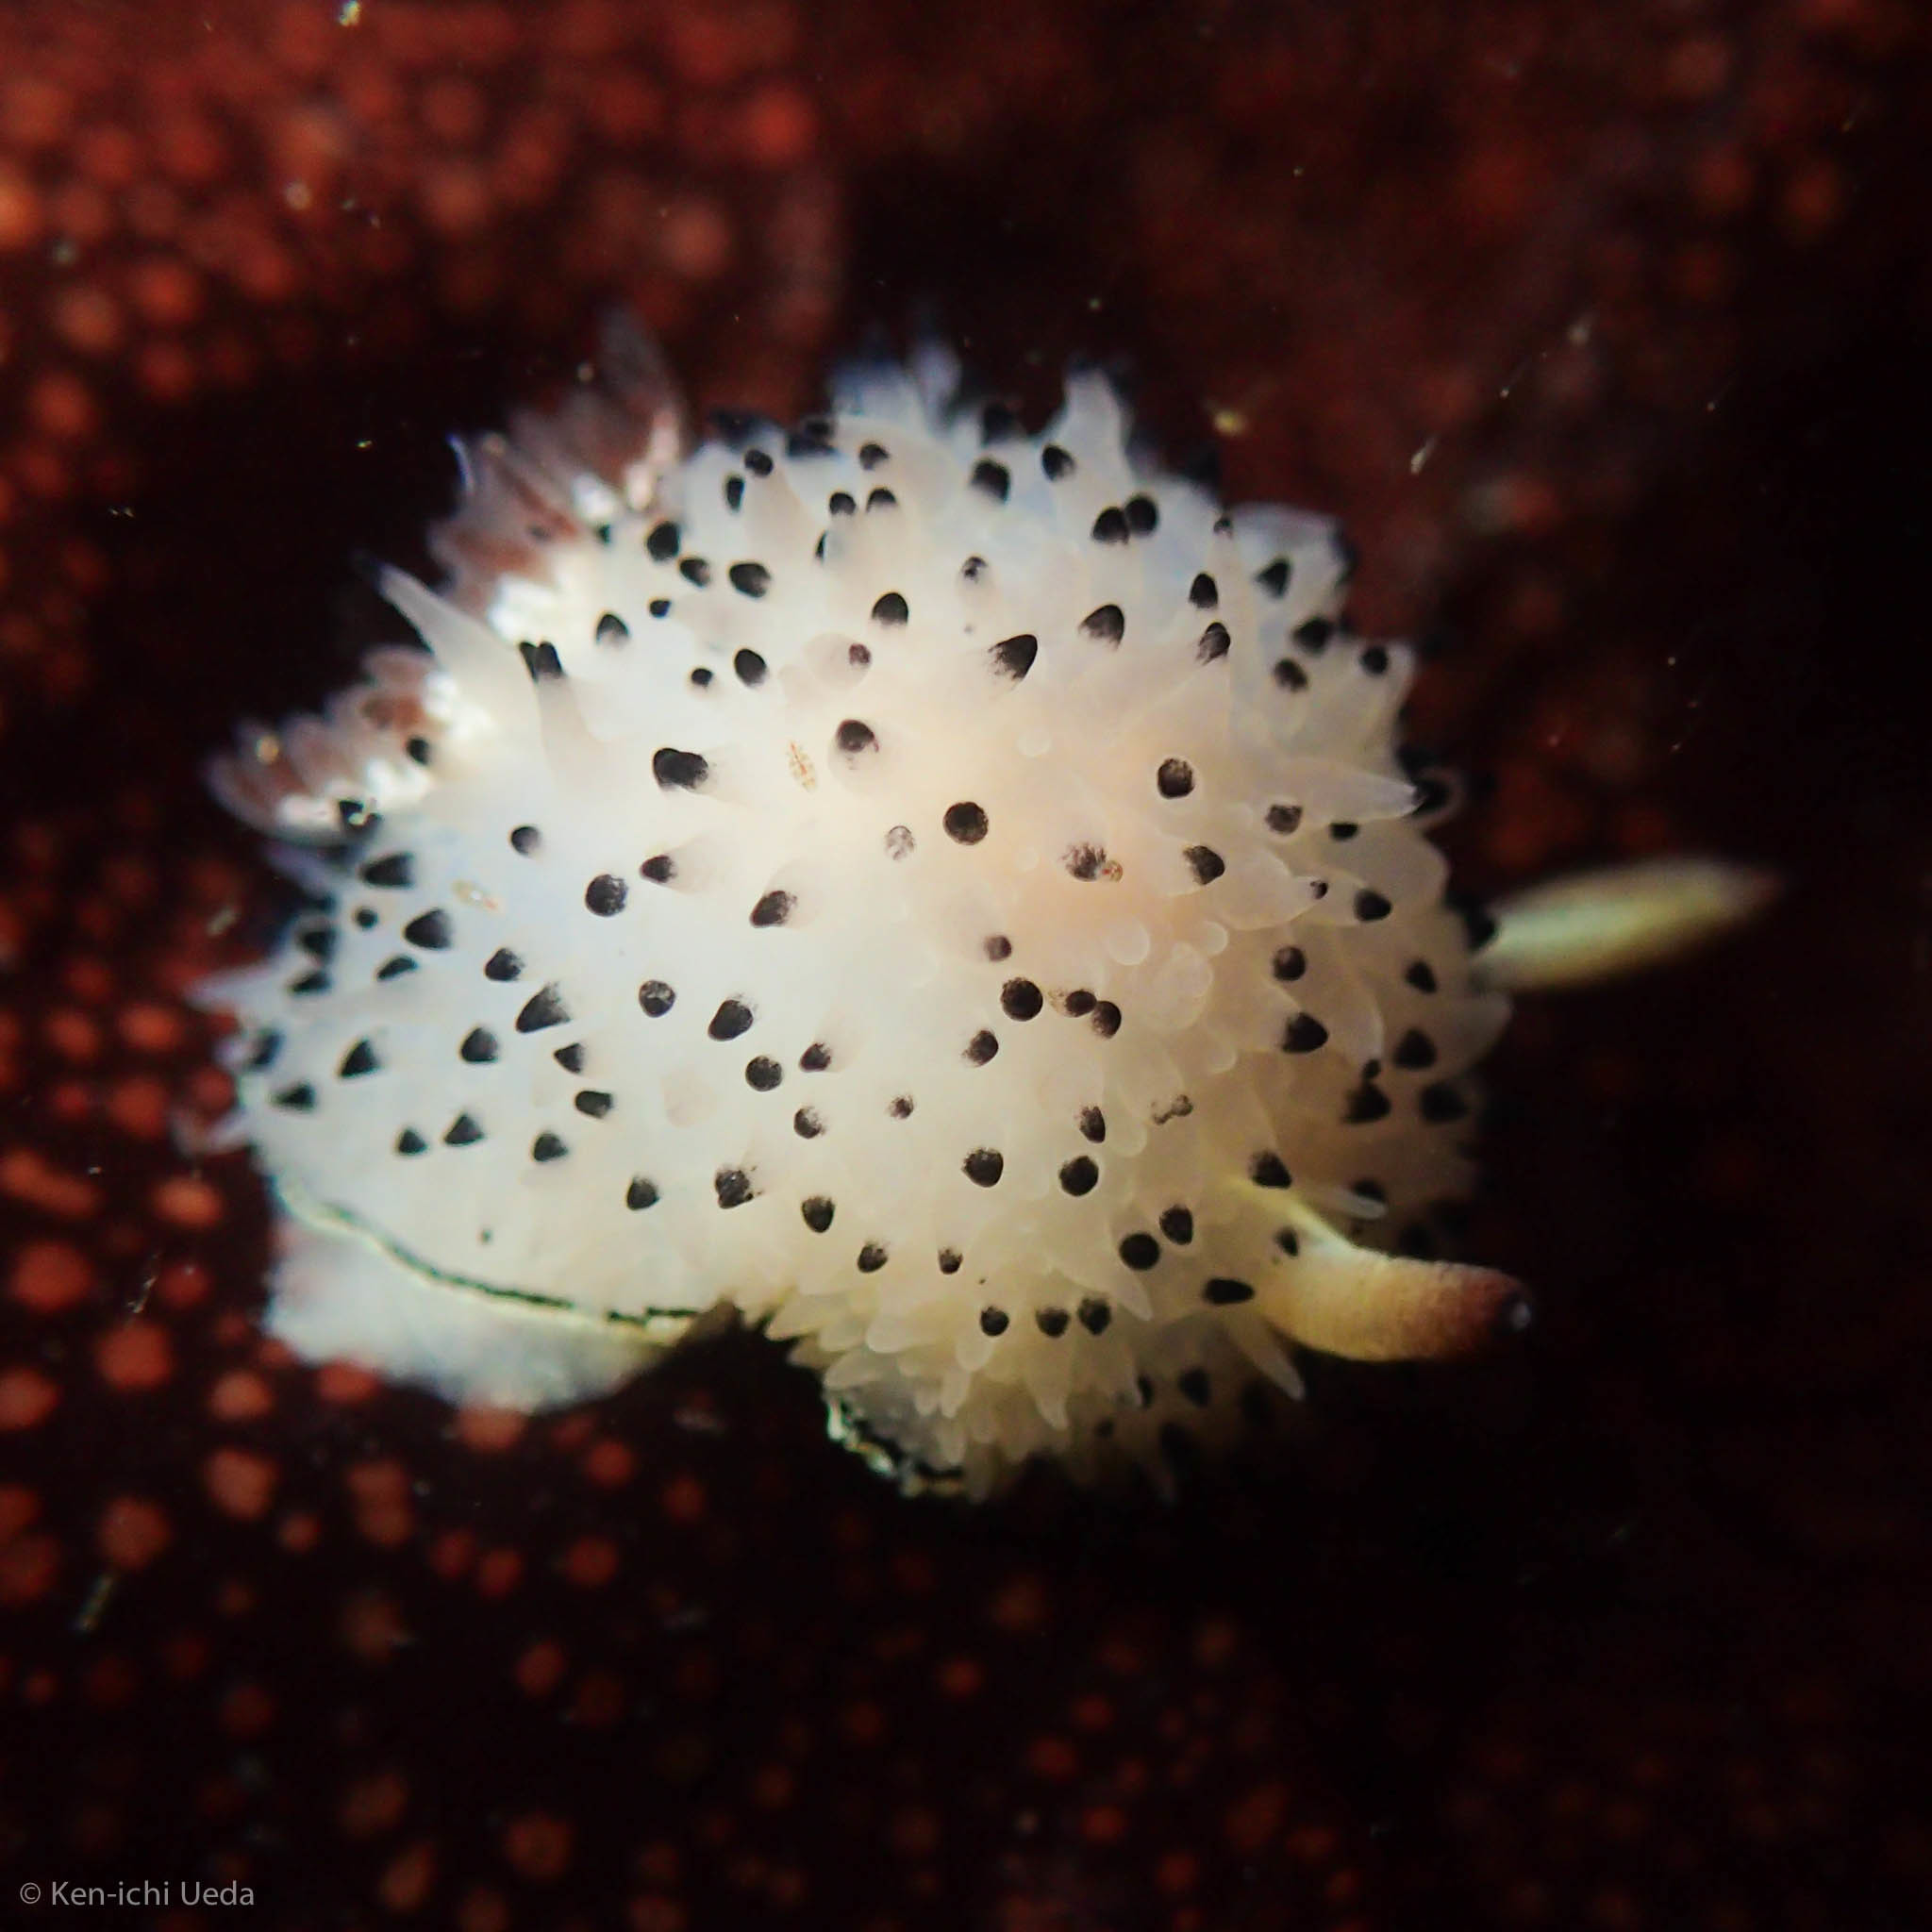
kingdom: Animalia
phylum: Mollusca
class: Gastropoda
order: Nudibranchia
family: Onchidorididae
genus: Acanthodoris
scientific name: Acanthodoris rhodoceras
